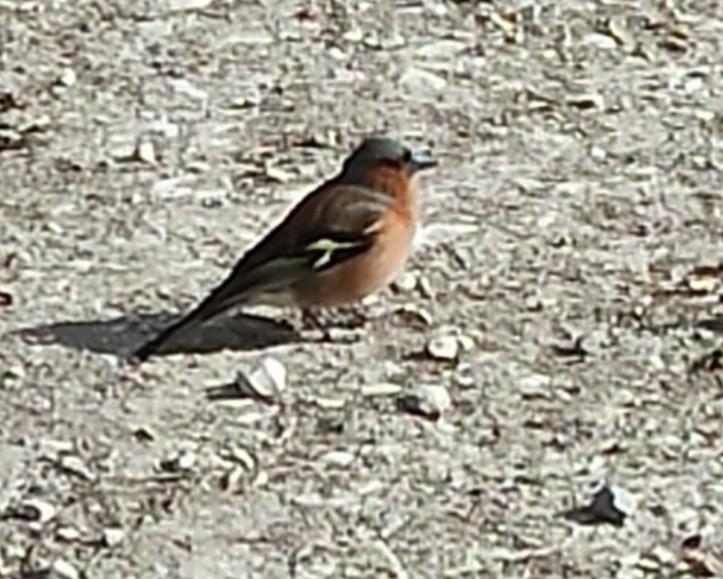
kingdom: Animalia
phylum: Chordata
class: Aves
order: Passeriformes
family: Fringillidae
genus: Fringilla
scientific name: Fringilla coelebs
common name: Common chaffinch
